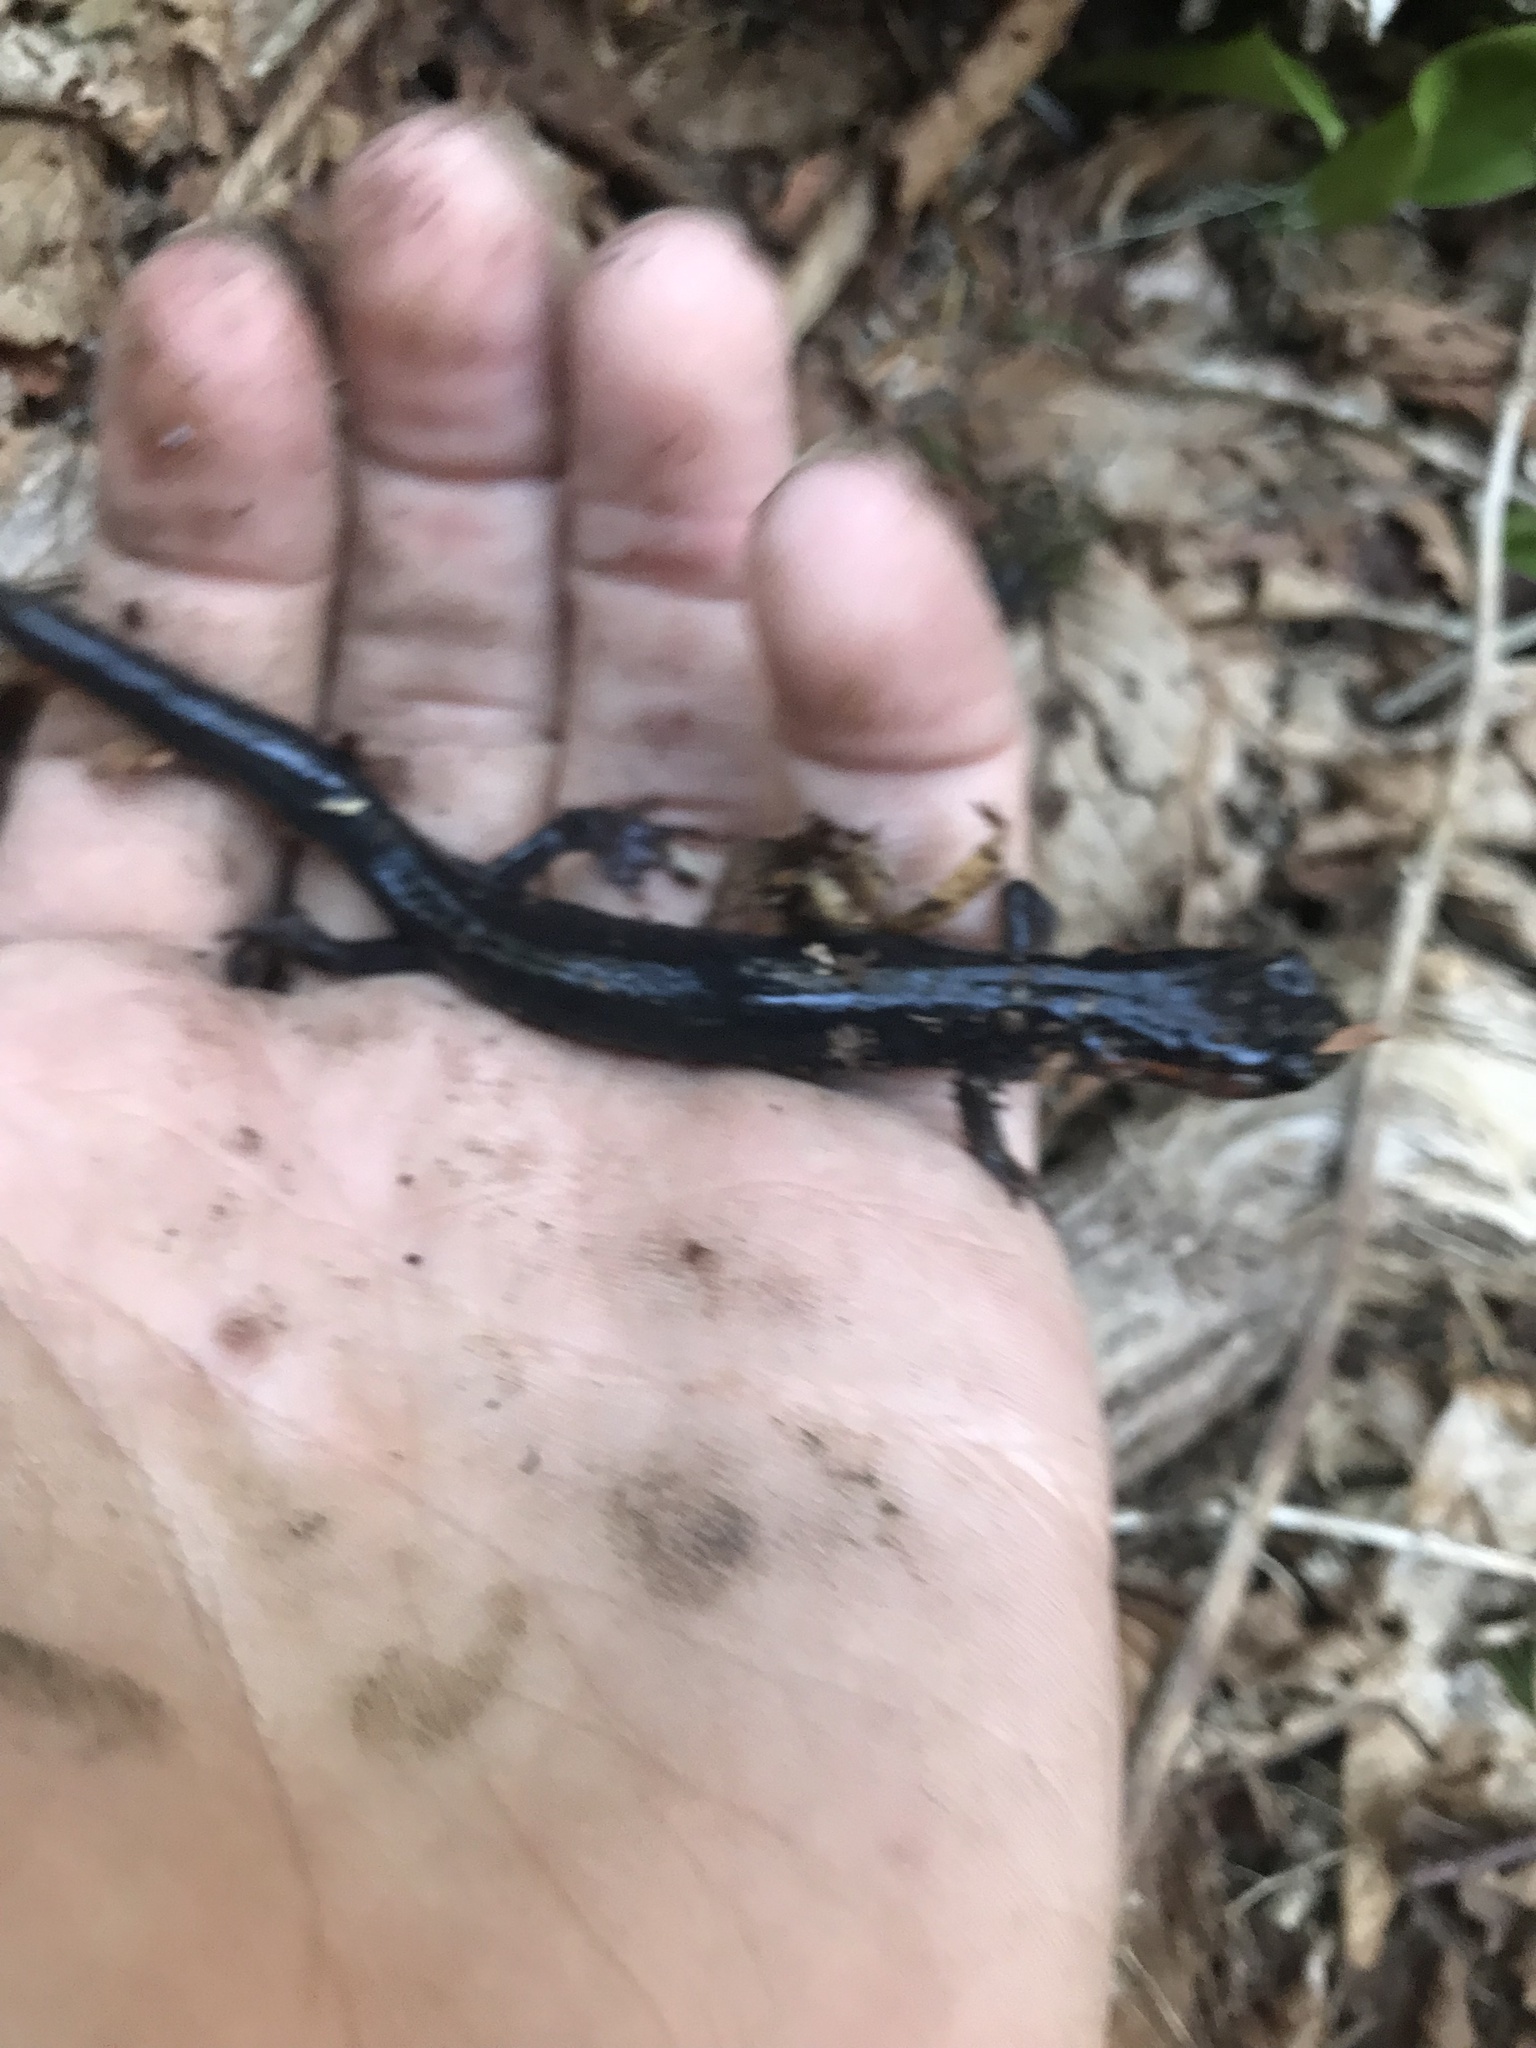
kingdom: Animalia
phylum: Chordata
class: Amphibia
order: Caudata
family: Plethodontidae
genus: Plethodon
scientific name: Plethodon jordani
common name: Red-cheeked salamander
